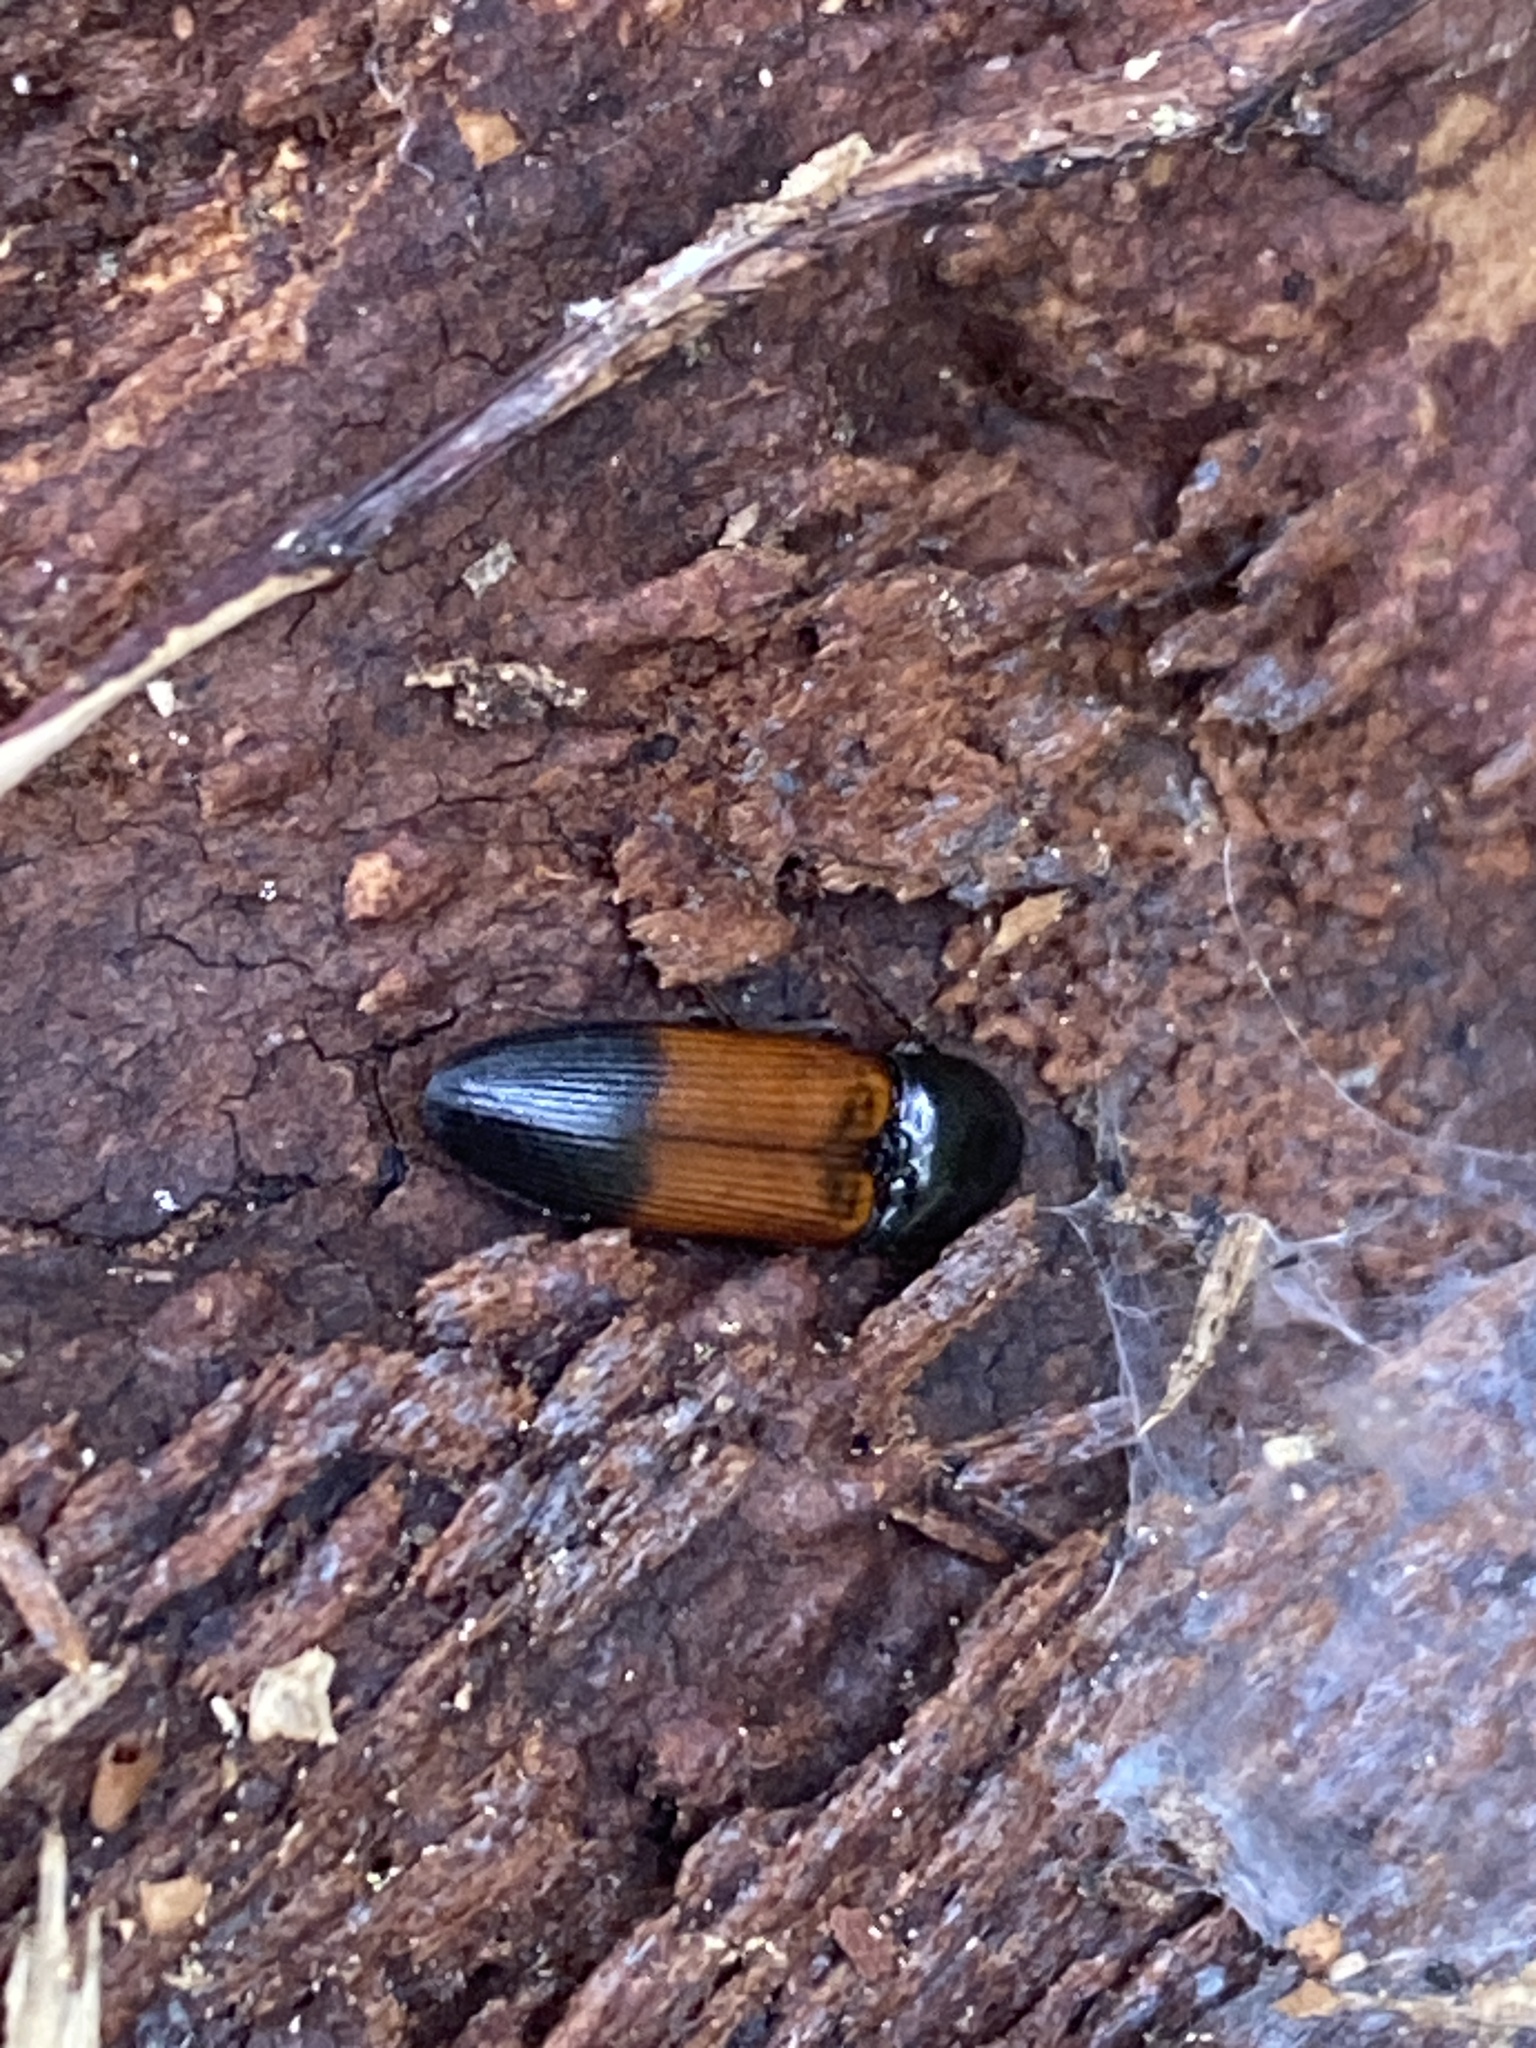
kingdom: Animalia
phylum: Arthropoda
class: Insecta
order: Coleoptera
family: Elateridae
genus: Ampedus
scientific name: Ampedus balteatus
